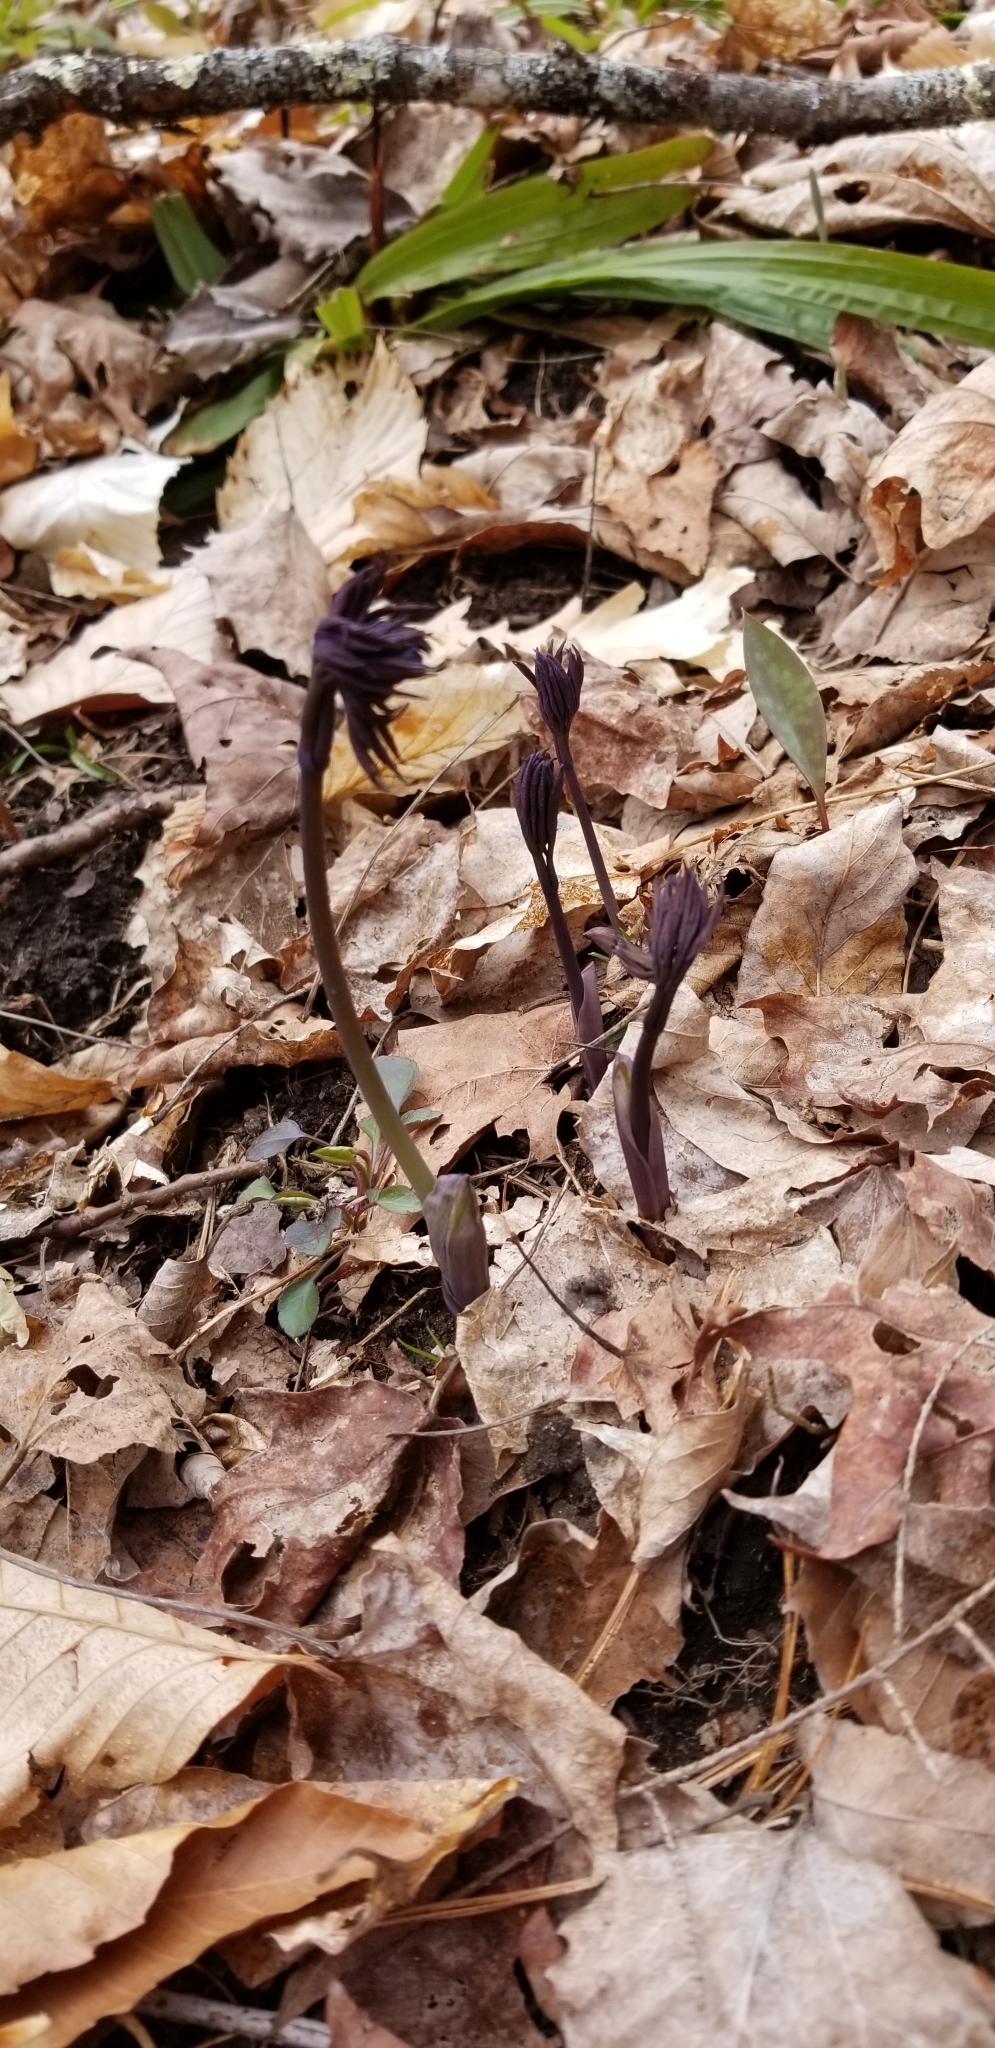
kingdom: Plantae
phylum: Tracheophyta
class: Magnoliopsida
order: Ranunculales
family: Berberidaceae
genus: Caulophyllum
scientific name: Caulophyllum giganteum
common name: Blue cohosh
